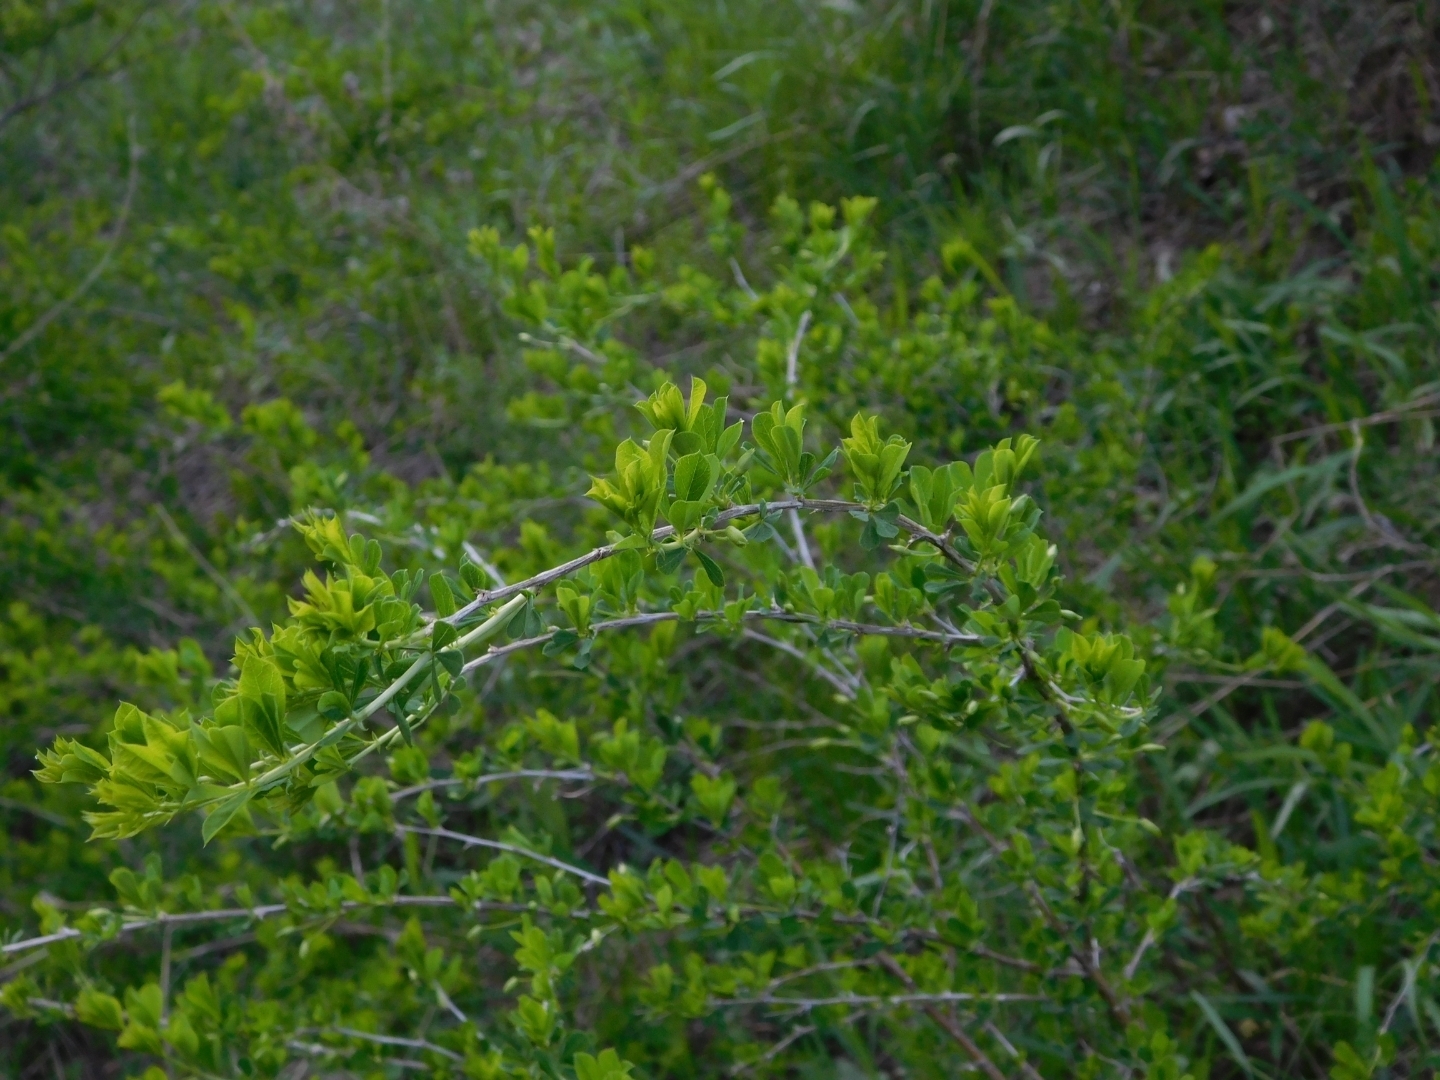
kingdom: Plantae
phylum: Tracheophyta
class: Magnoliopsida
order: Fabales
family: Fabaceae
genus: Caragana
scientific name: Caragana frutex
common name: Russian peashrub
